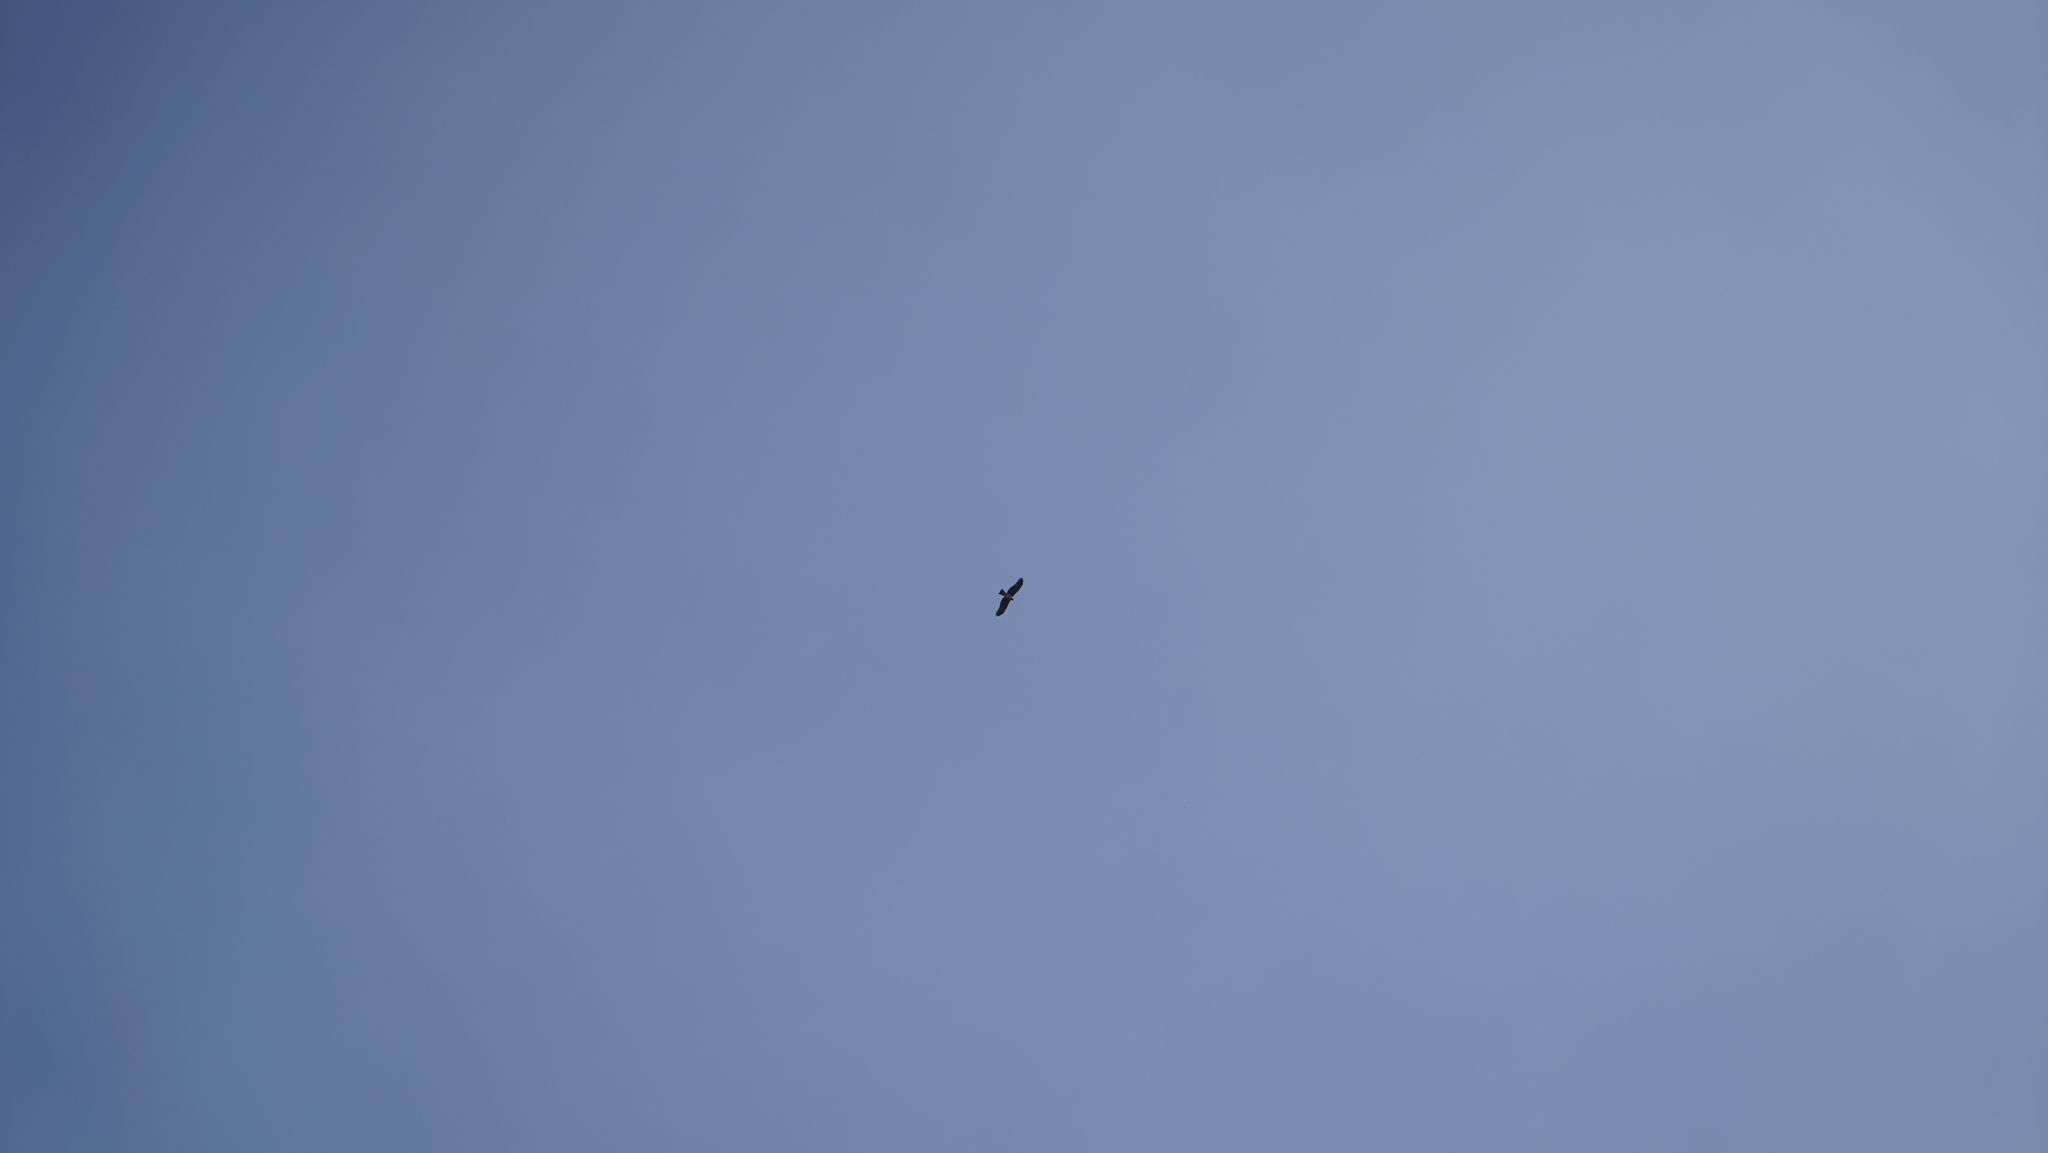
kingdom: Animalia
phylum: Chordata
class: Aves
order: Accipitriformes
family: Accipitridae
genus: Milvus
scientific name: Milvus migrans
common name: Black kite
